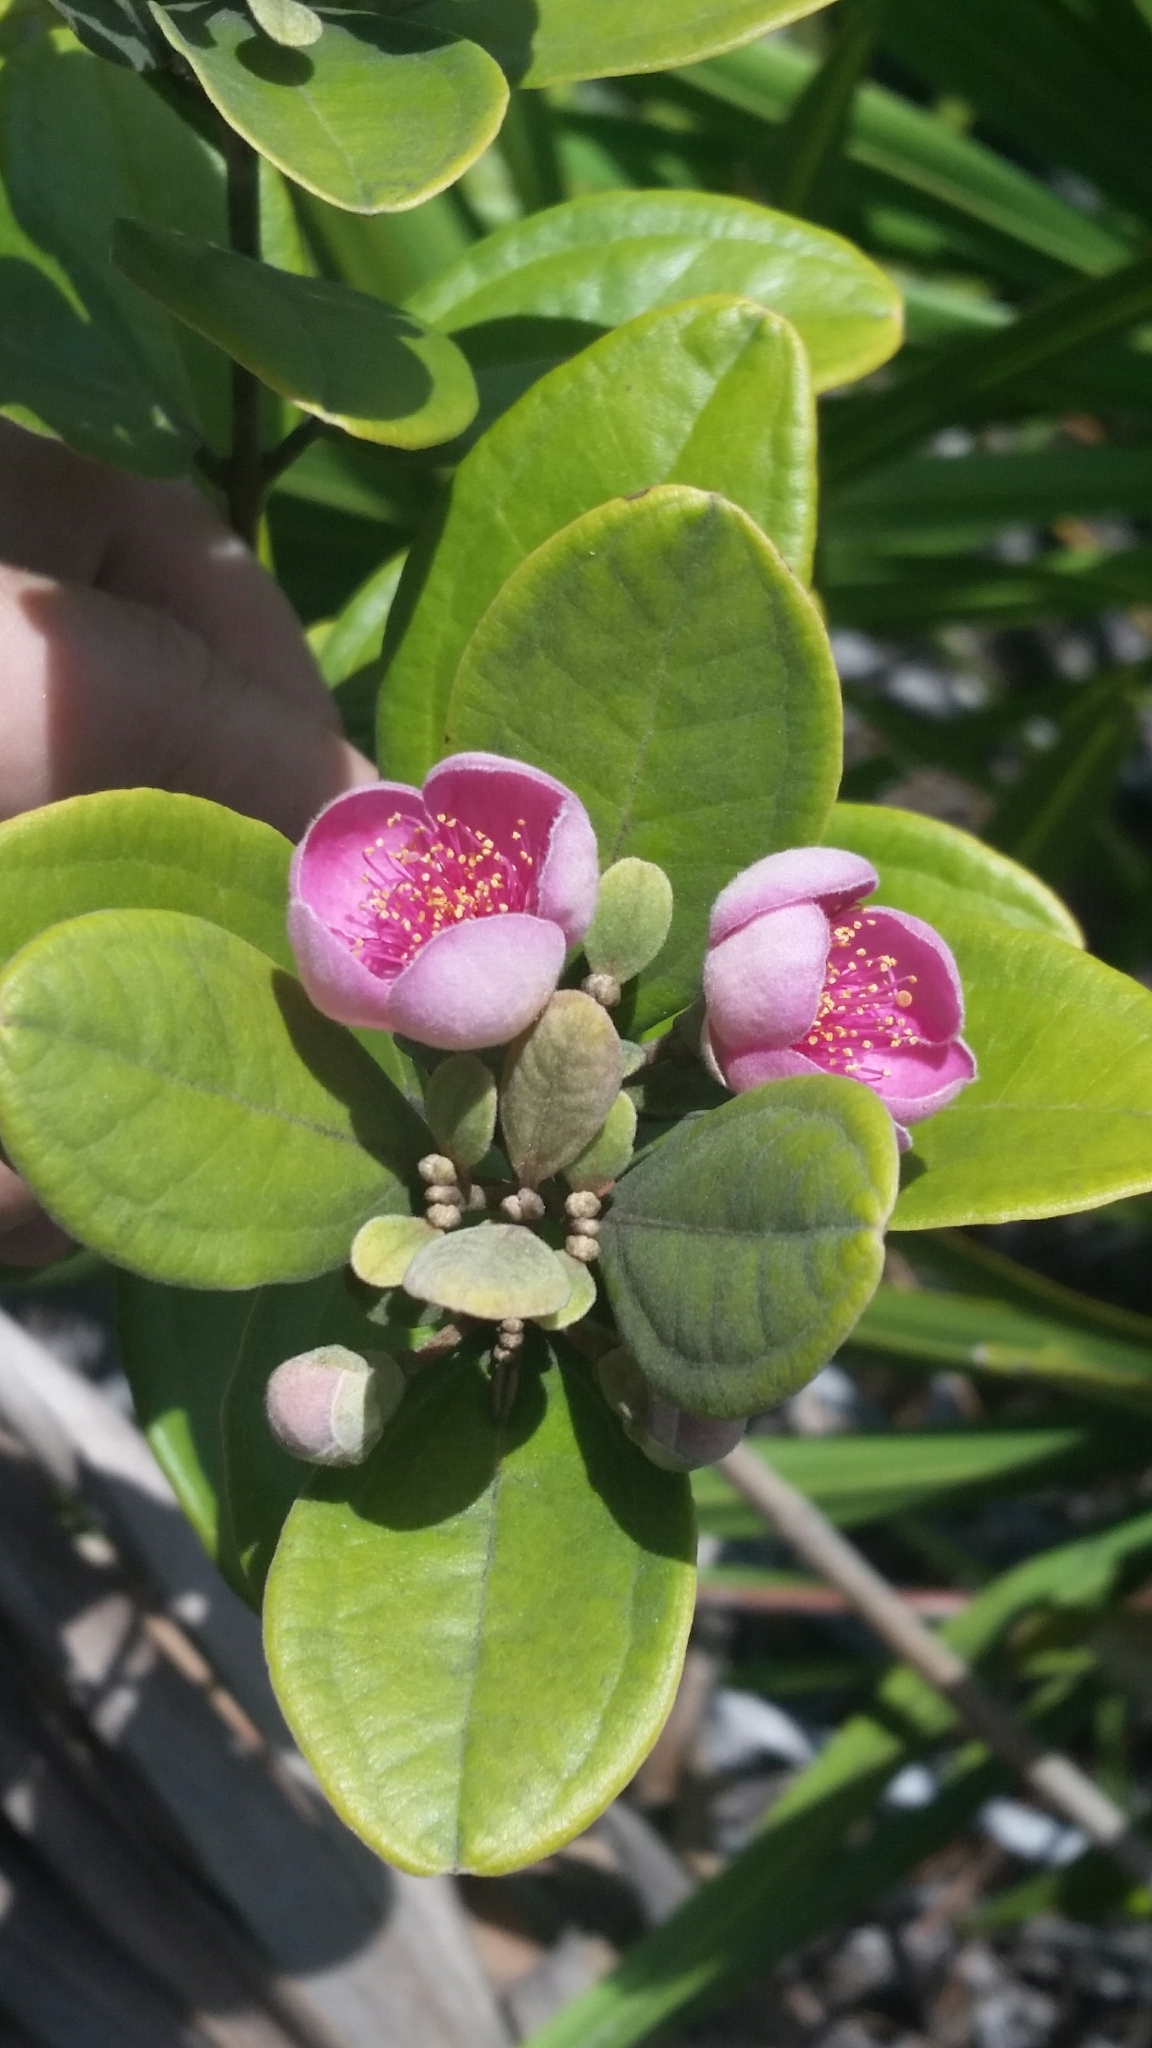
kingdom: Plantae
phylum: Tracheophyta
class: Magnoliopsida
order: Myrtales
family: Myrtaceae
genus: Rhodomyrtus
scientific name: Rhodomyrtus tomentosa
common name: Rose myrtle
